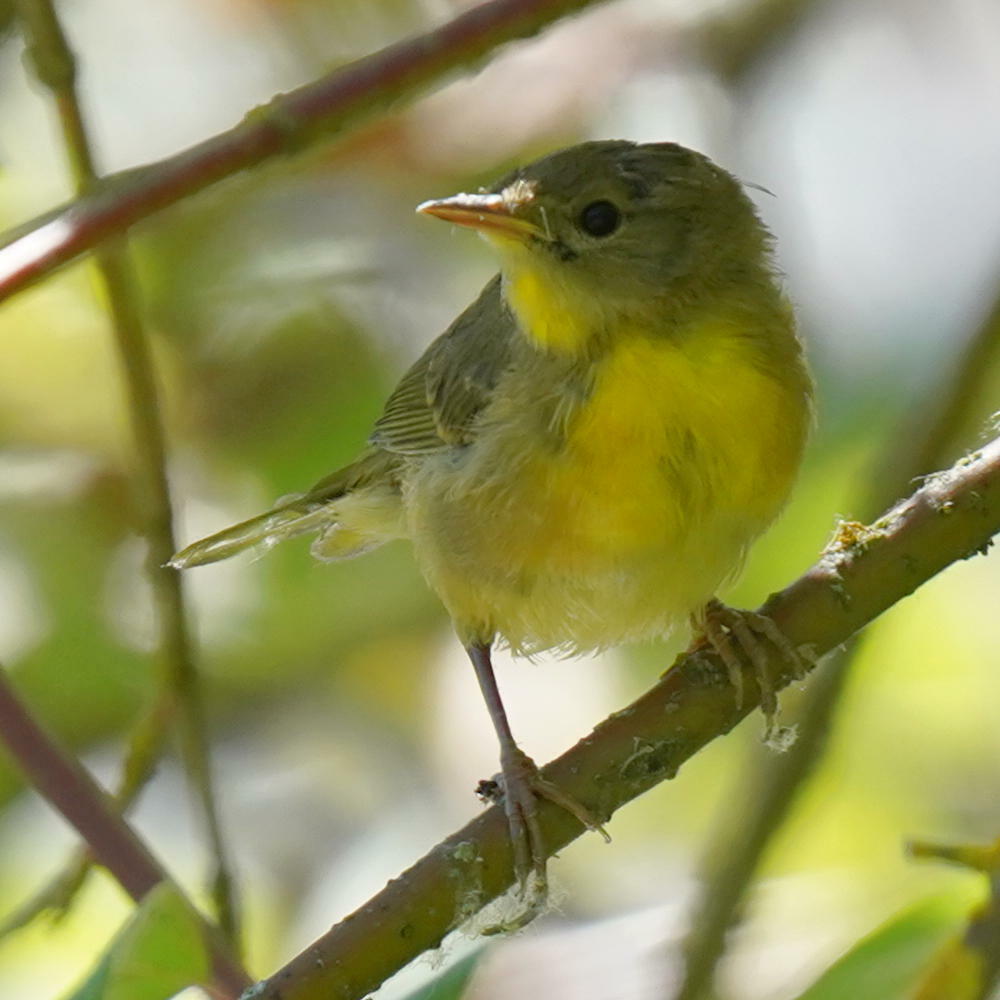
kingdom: Animalia
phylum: Chordata
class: Aves
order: Passeriformes
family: Parulidae
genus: Geothlypis
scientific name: Geothlypis trichas
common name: Common yellowthroat
